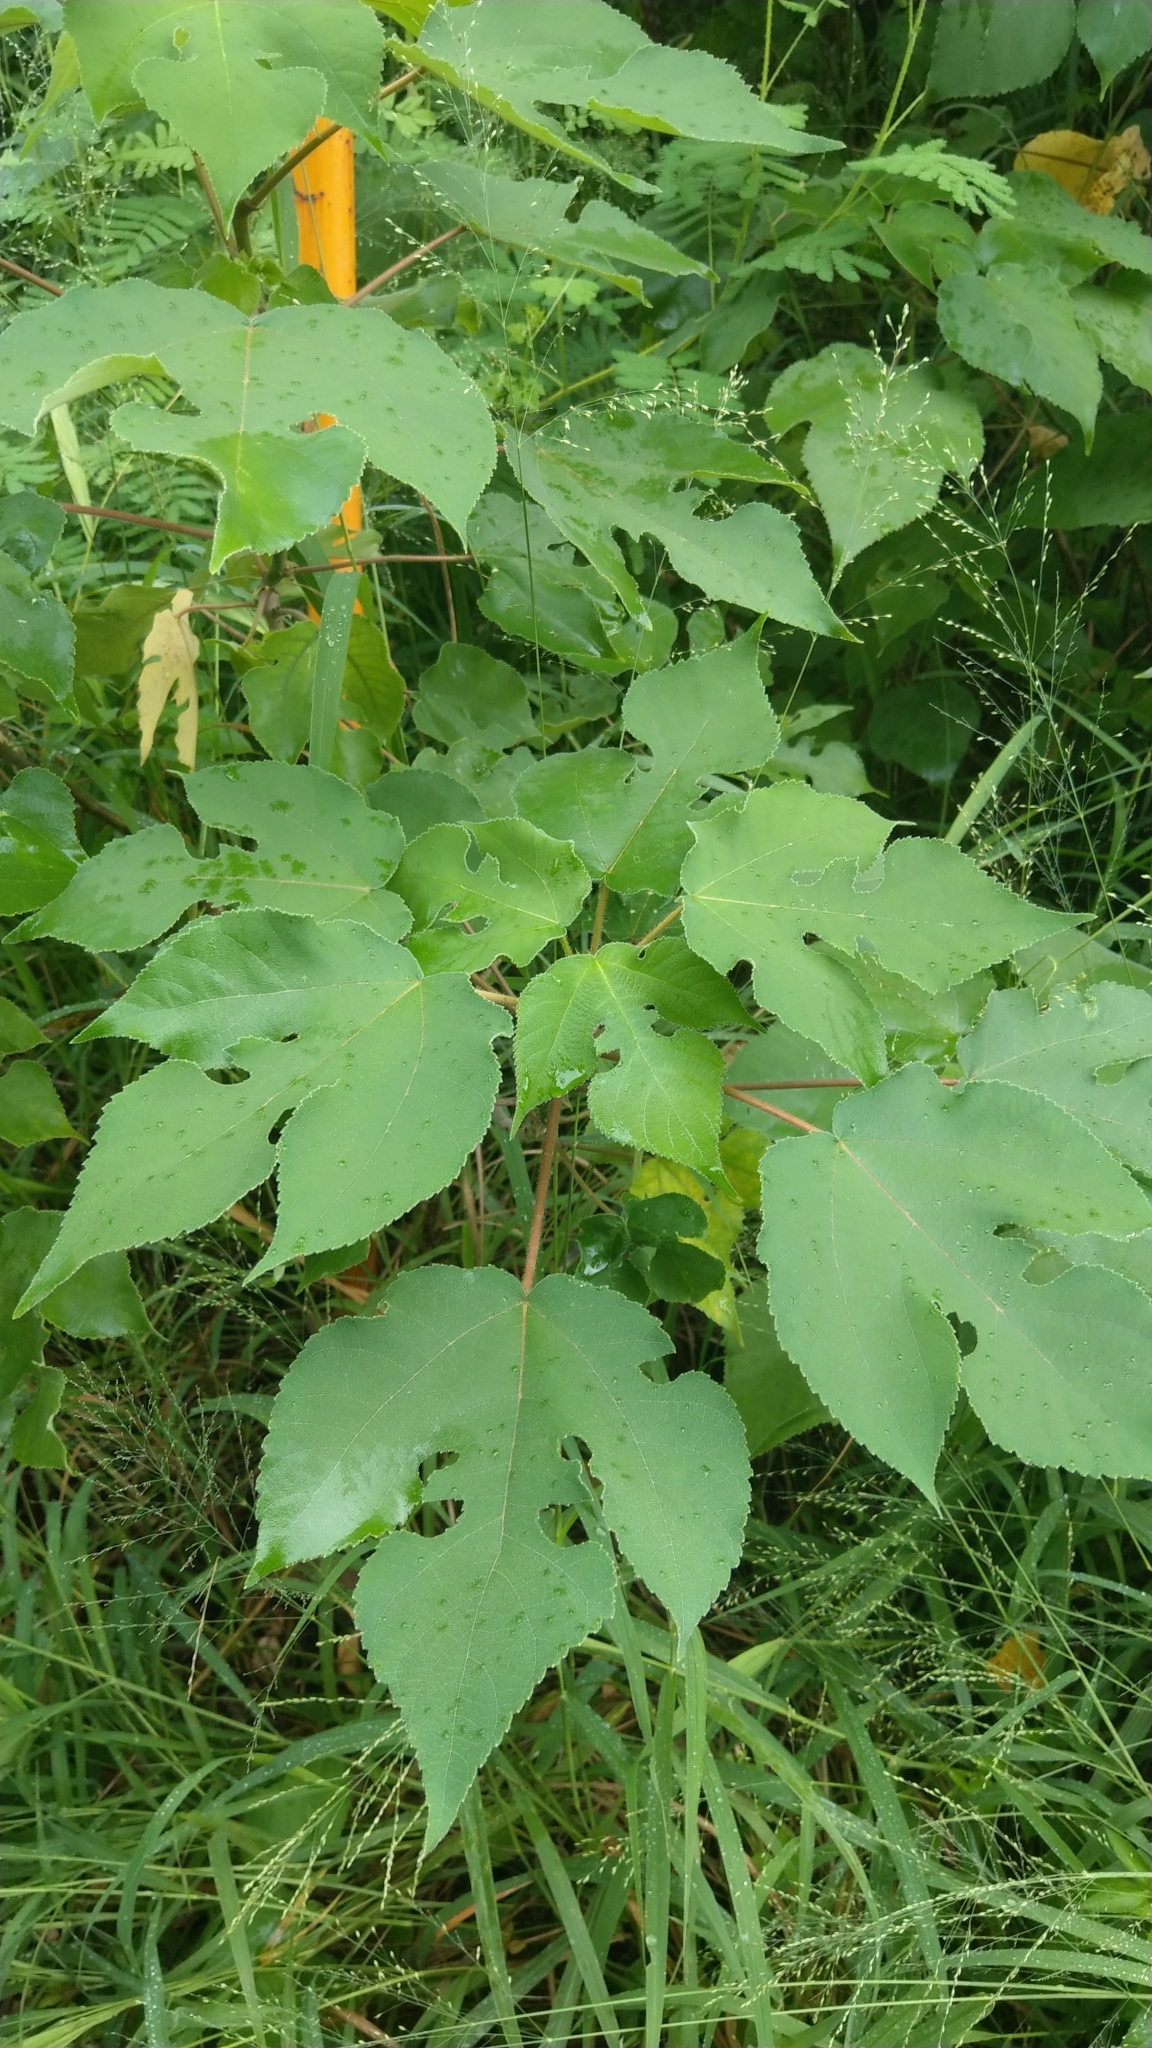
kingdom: Plantae
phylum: Tracheophyta
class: Magnoliopsida
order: Rosales
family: Moraceae
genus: Broussonetia
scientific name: Broussonetia papyrifera
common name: Paper mulberry
